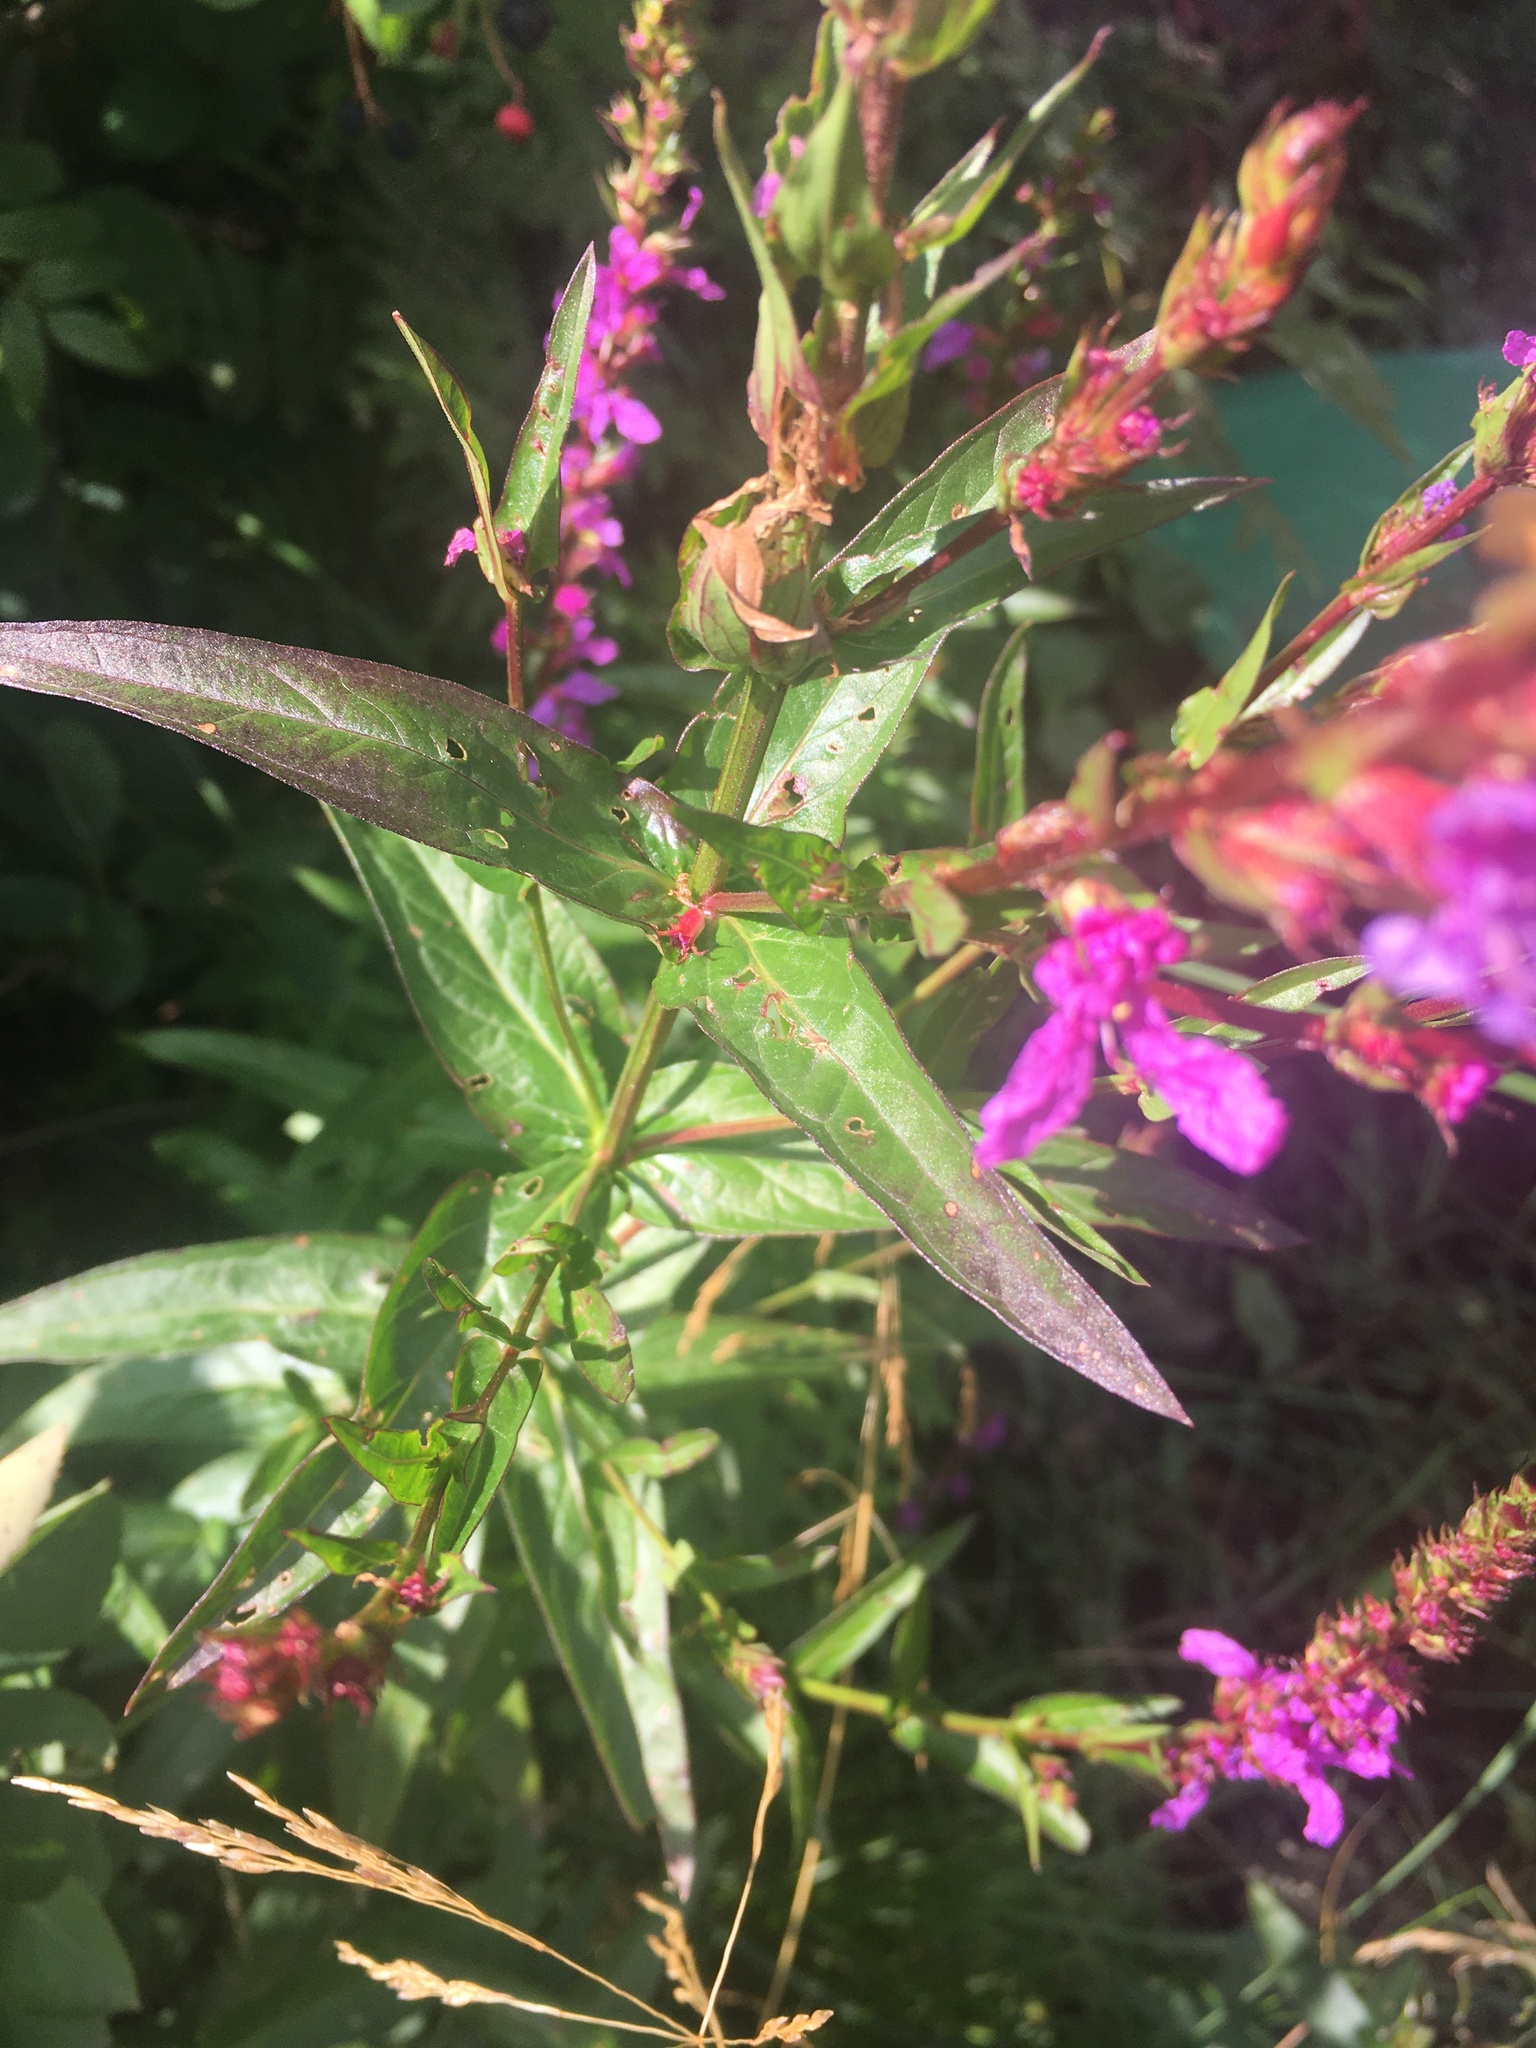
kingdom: Plantae
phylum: Tracheophyta
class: Magnoliopsida
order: Myrtales
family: Lythraceae
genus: Lythrum
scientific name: Lythrum salicaria
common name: Purple loosestrife
